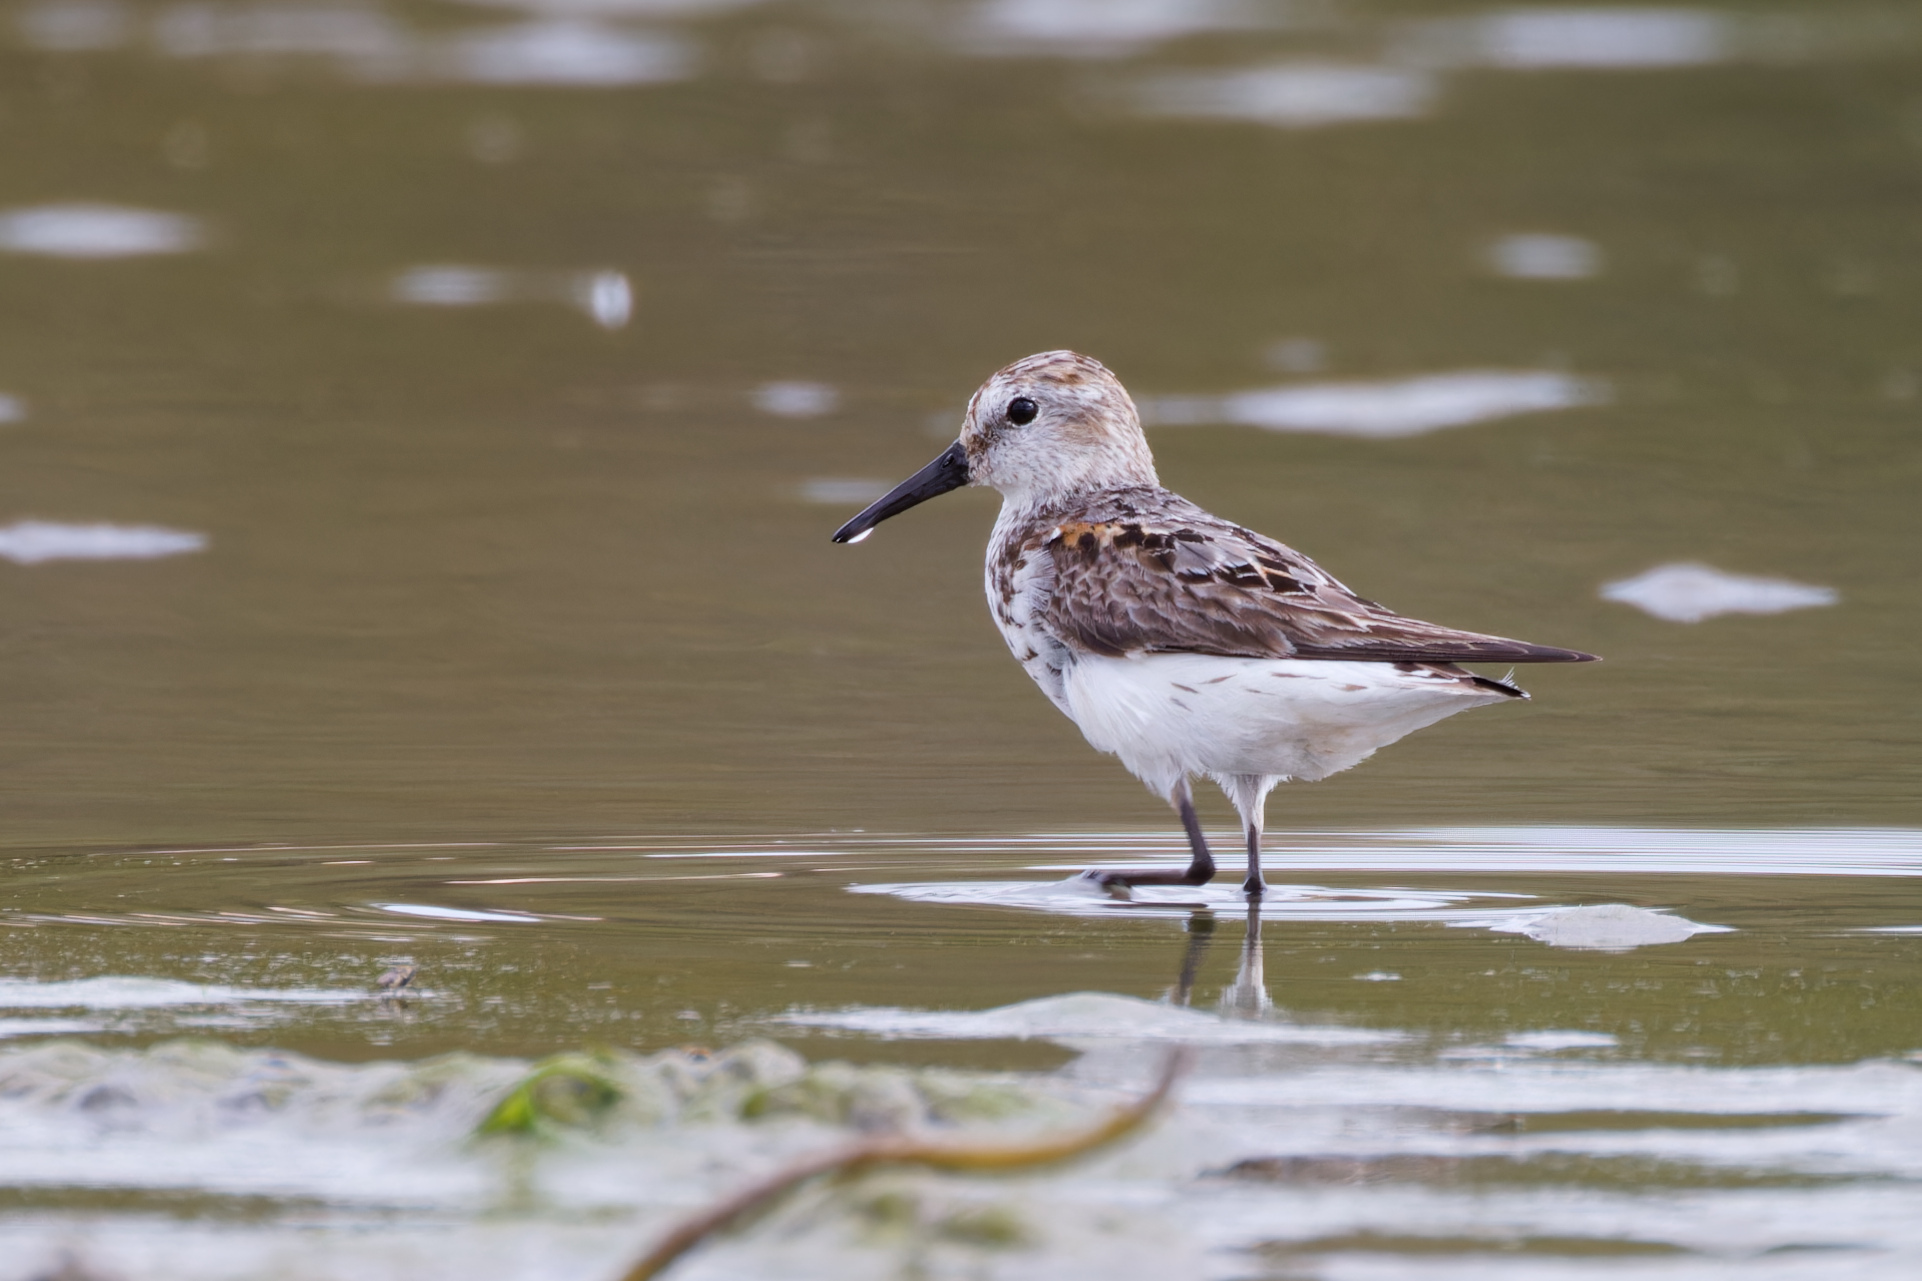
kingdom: Animalia
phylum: Chordata
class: Aves
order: Charadriiformes
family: Scolopacidae
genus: Calidris
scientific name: Calidris mauri
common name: Western sandpiper
